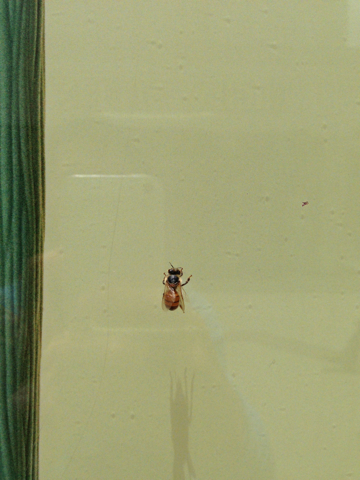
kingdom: Animalia
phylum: Arthropoda
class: Insecta
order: Hymenoptera
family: Apidae
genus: Apis
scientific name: Apis mellifera
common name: Honey bee
